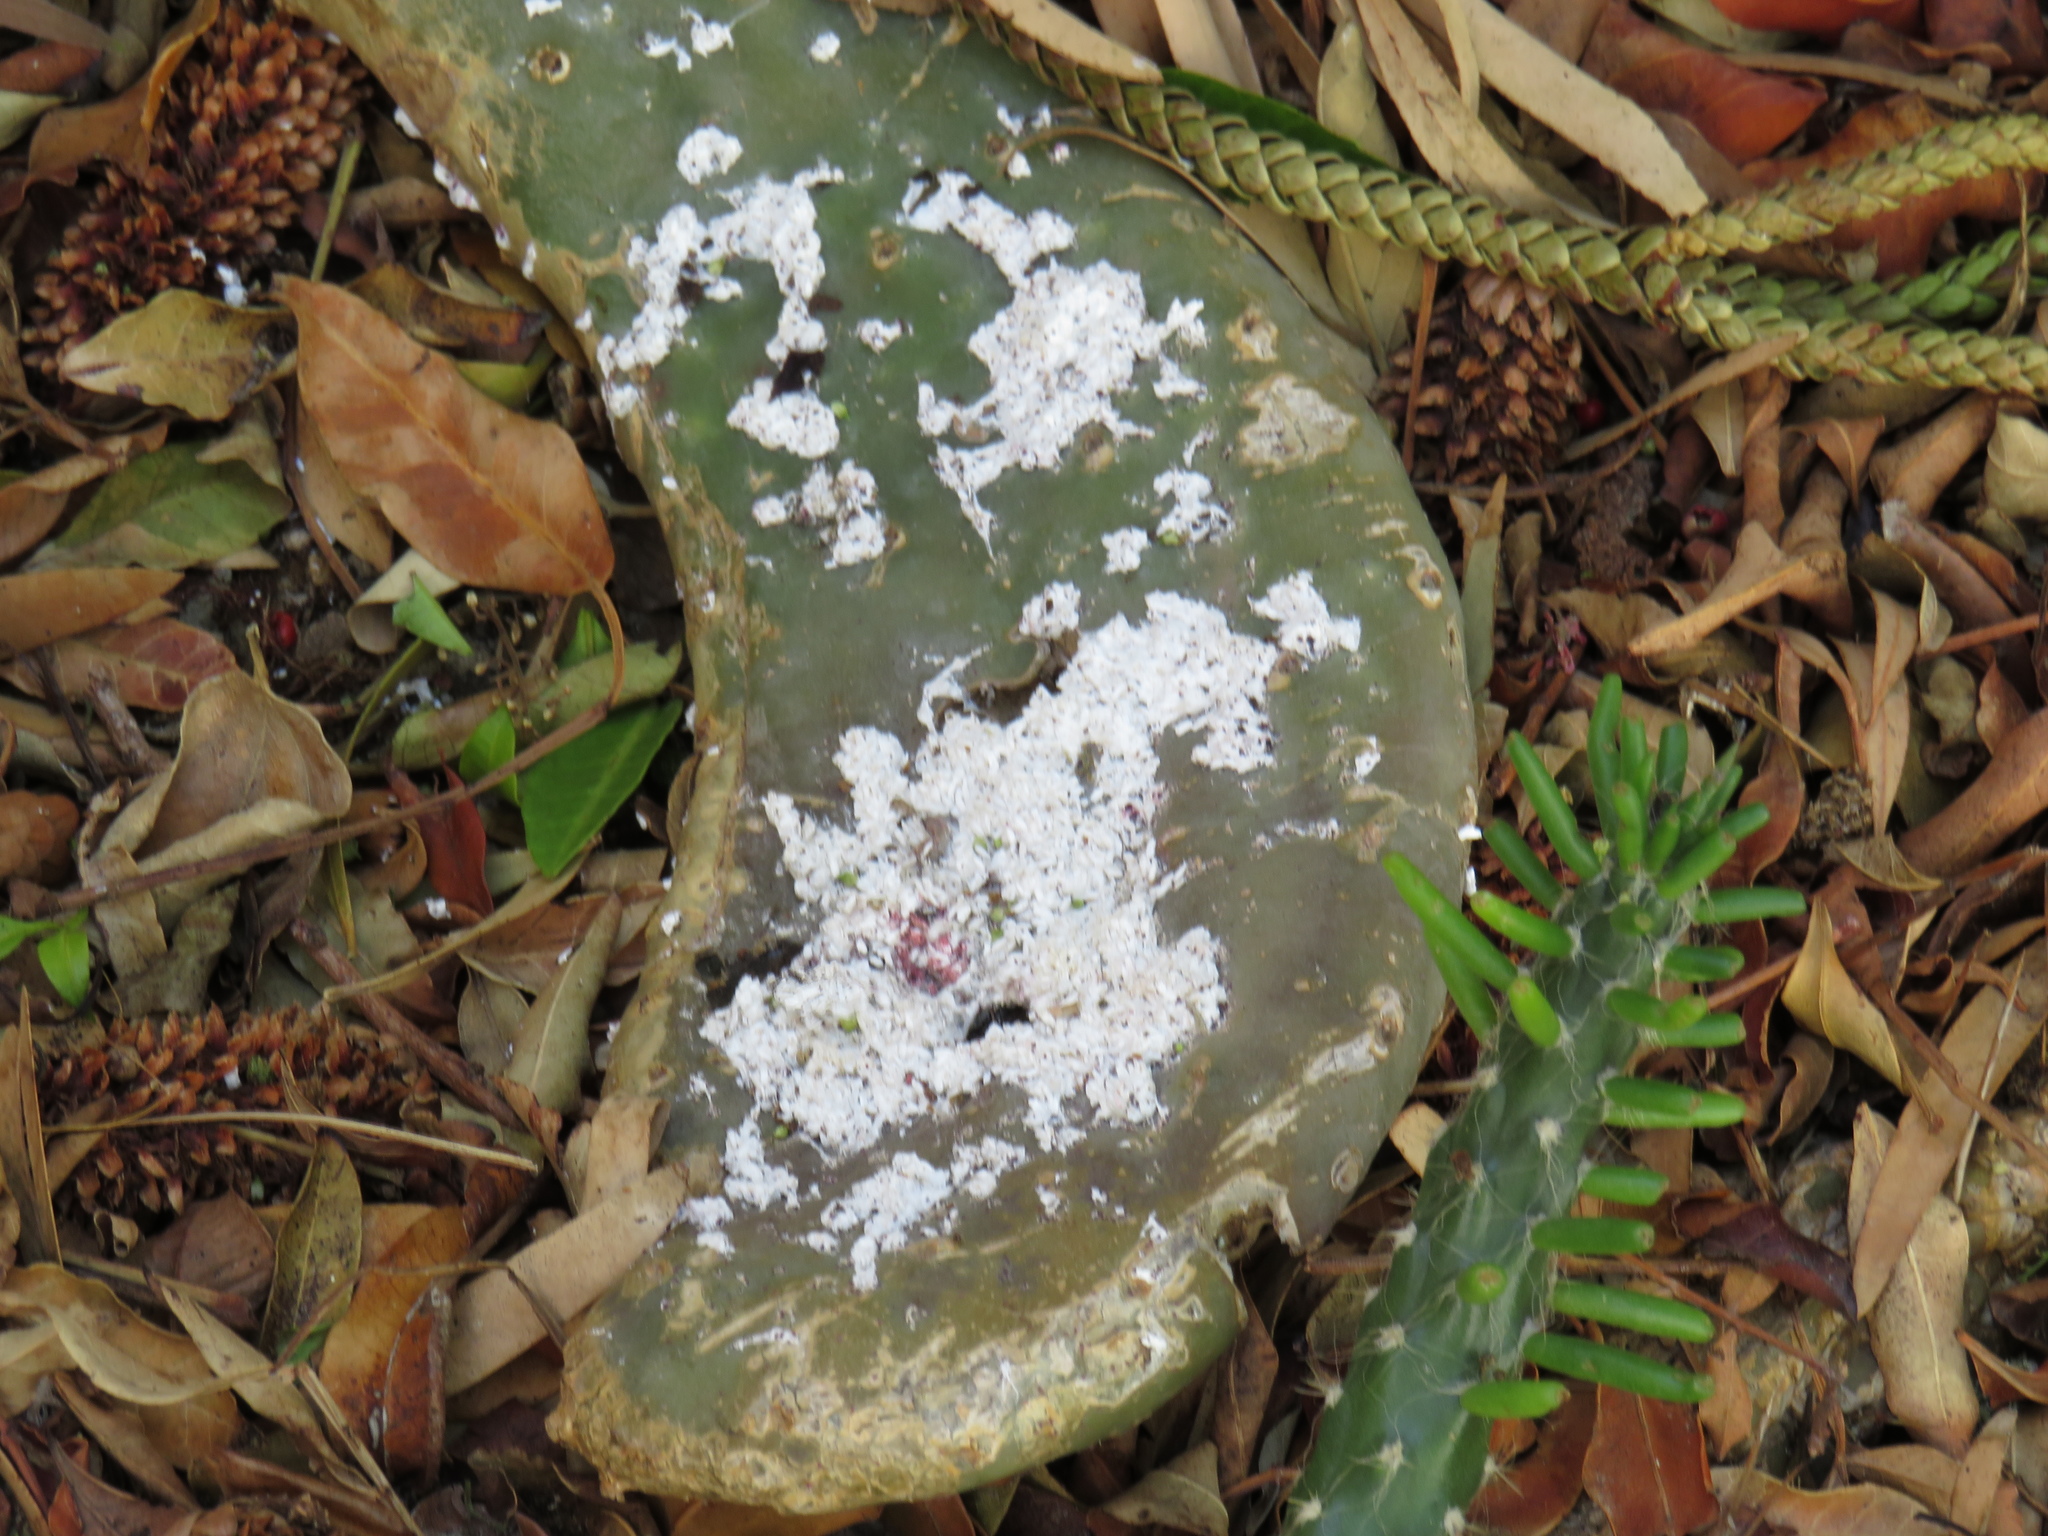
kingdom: Animalia
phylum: Arthropoda
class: Insecta
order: Hemiptera
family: Dactylopiidae
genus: Dactylopius
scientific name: Dactylopius opuntiae
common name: Opuntia cochineal scale
